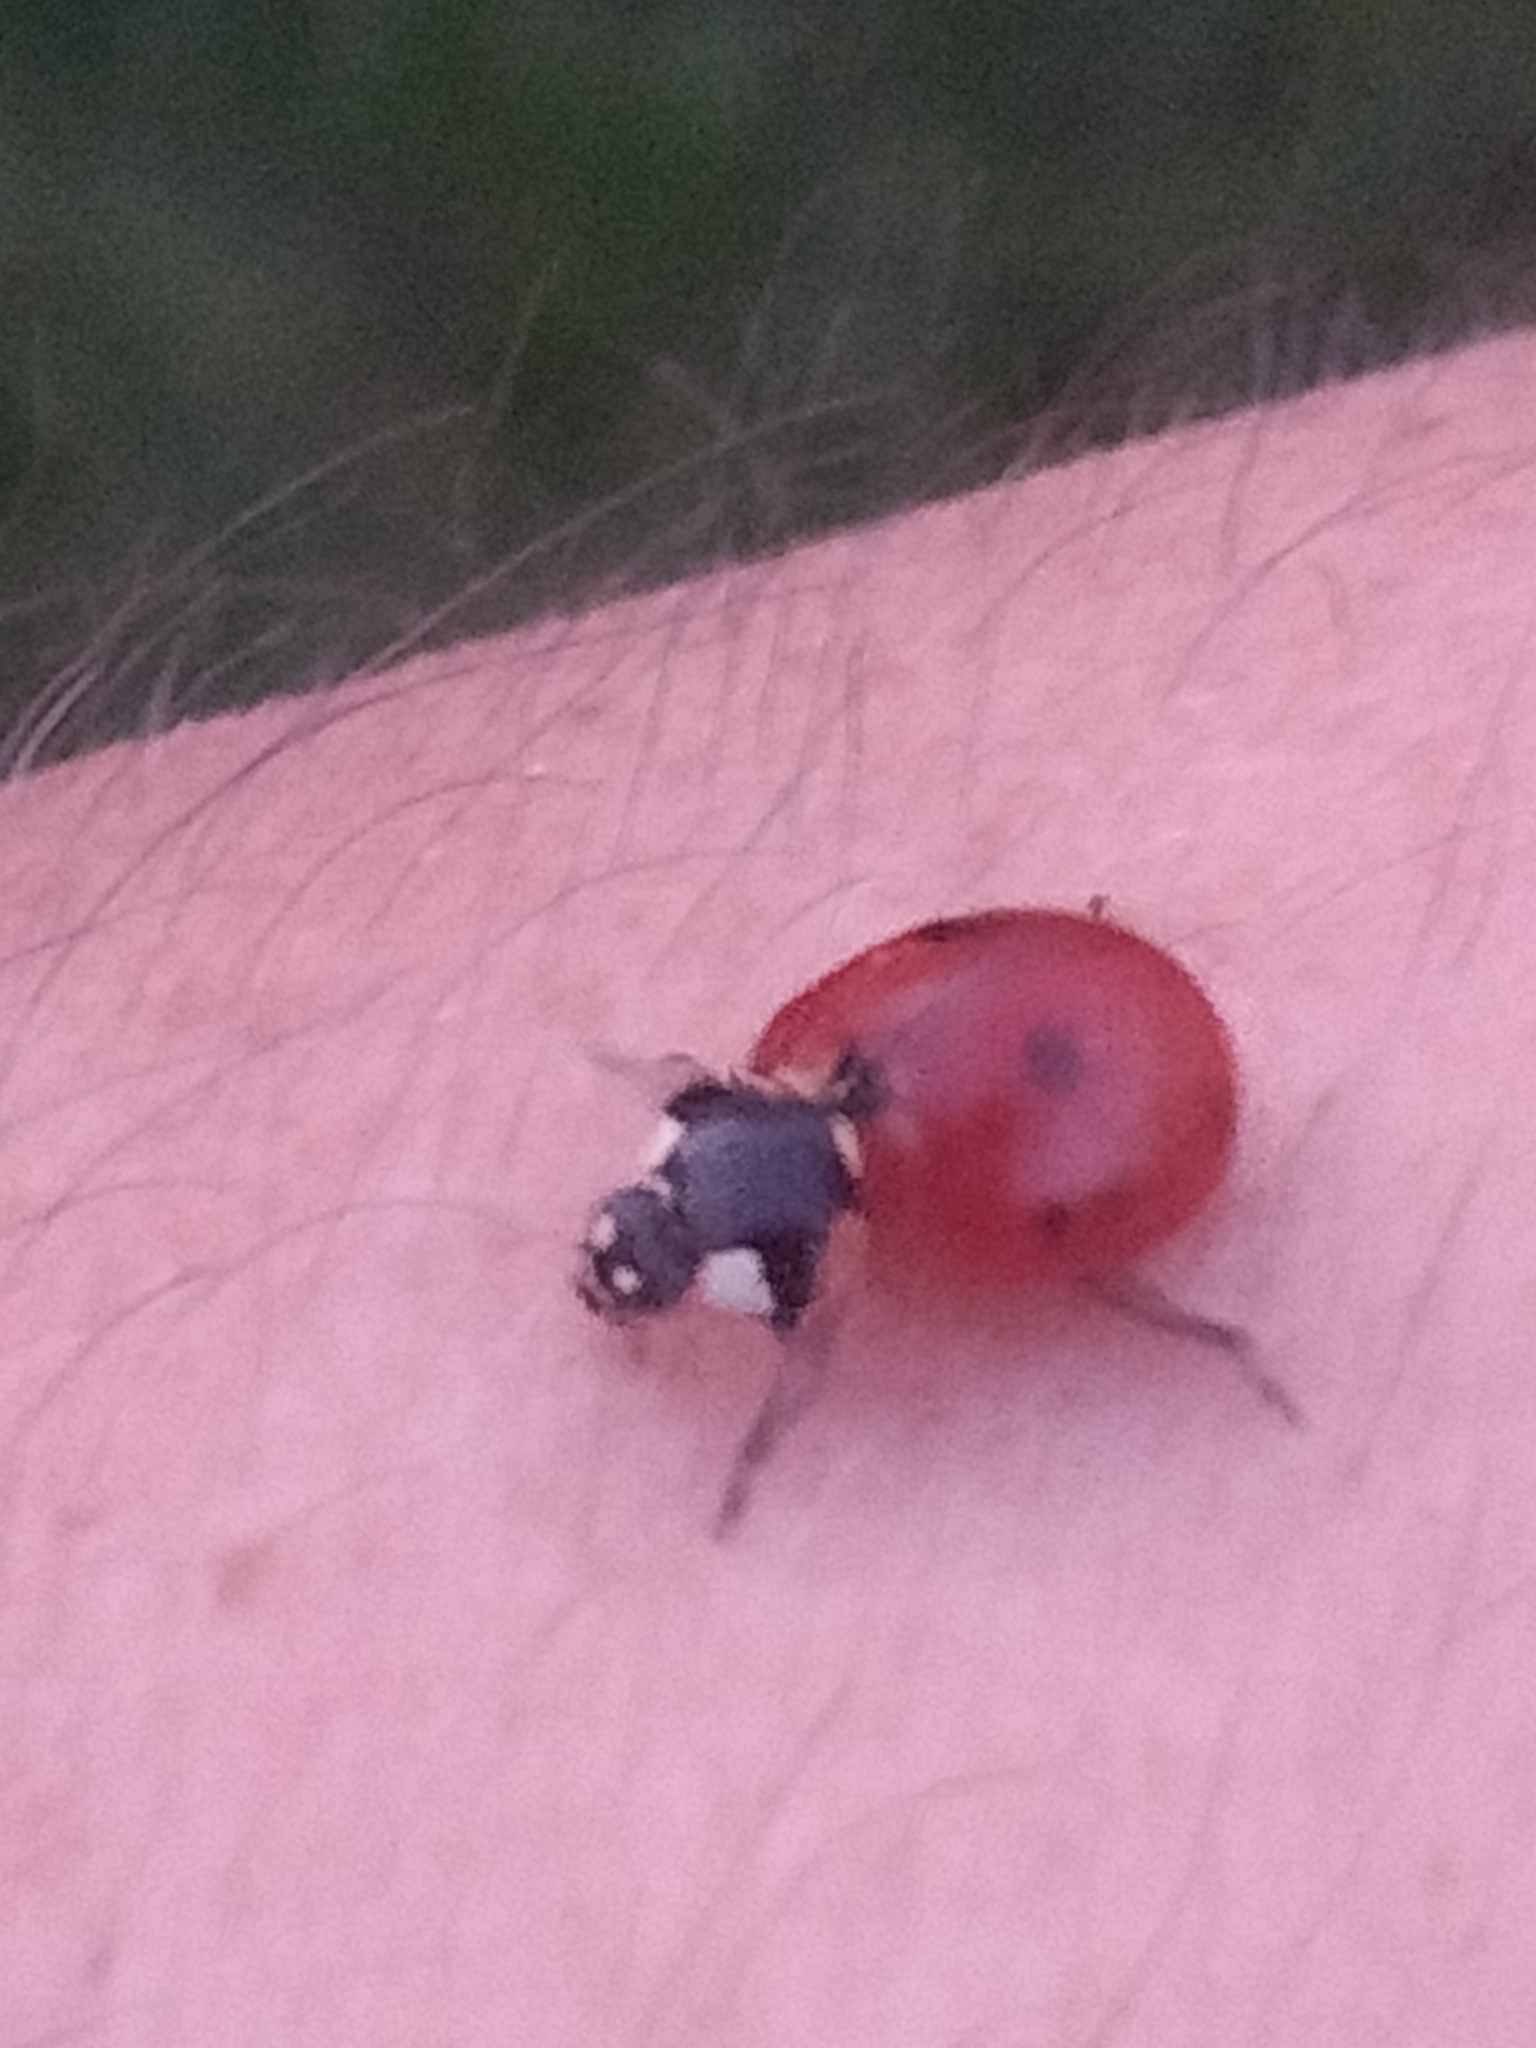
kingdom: Animalia
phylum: Arthropoda
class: Insecta
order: Coleoptera
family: Coccinellidae
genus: Coccinella
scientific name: Coccinella septempunctata
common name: Sevenspotted lady beetle
